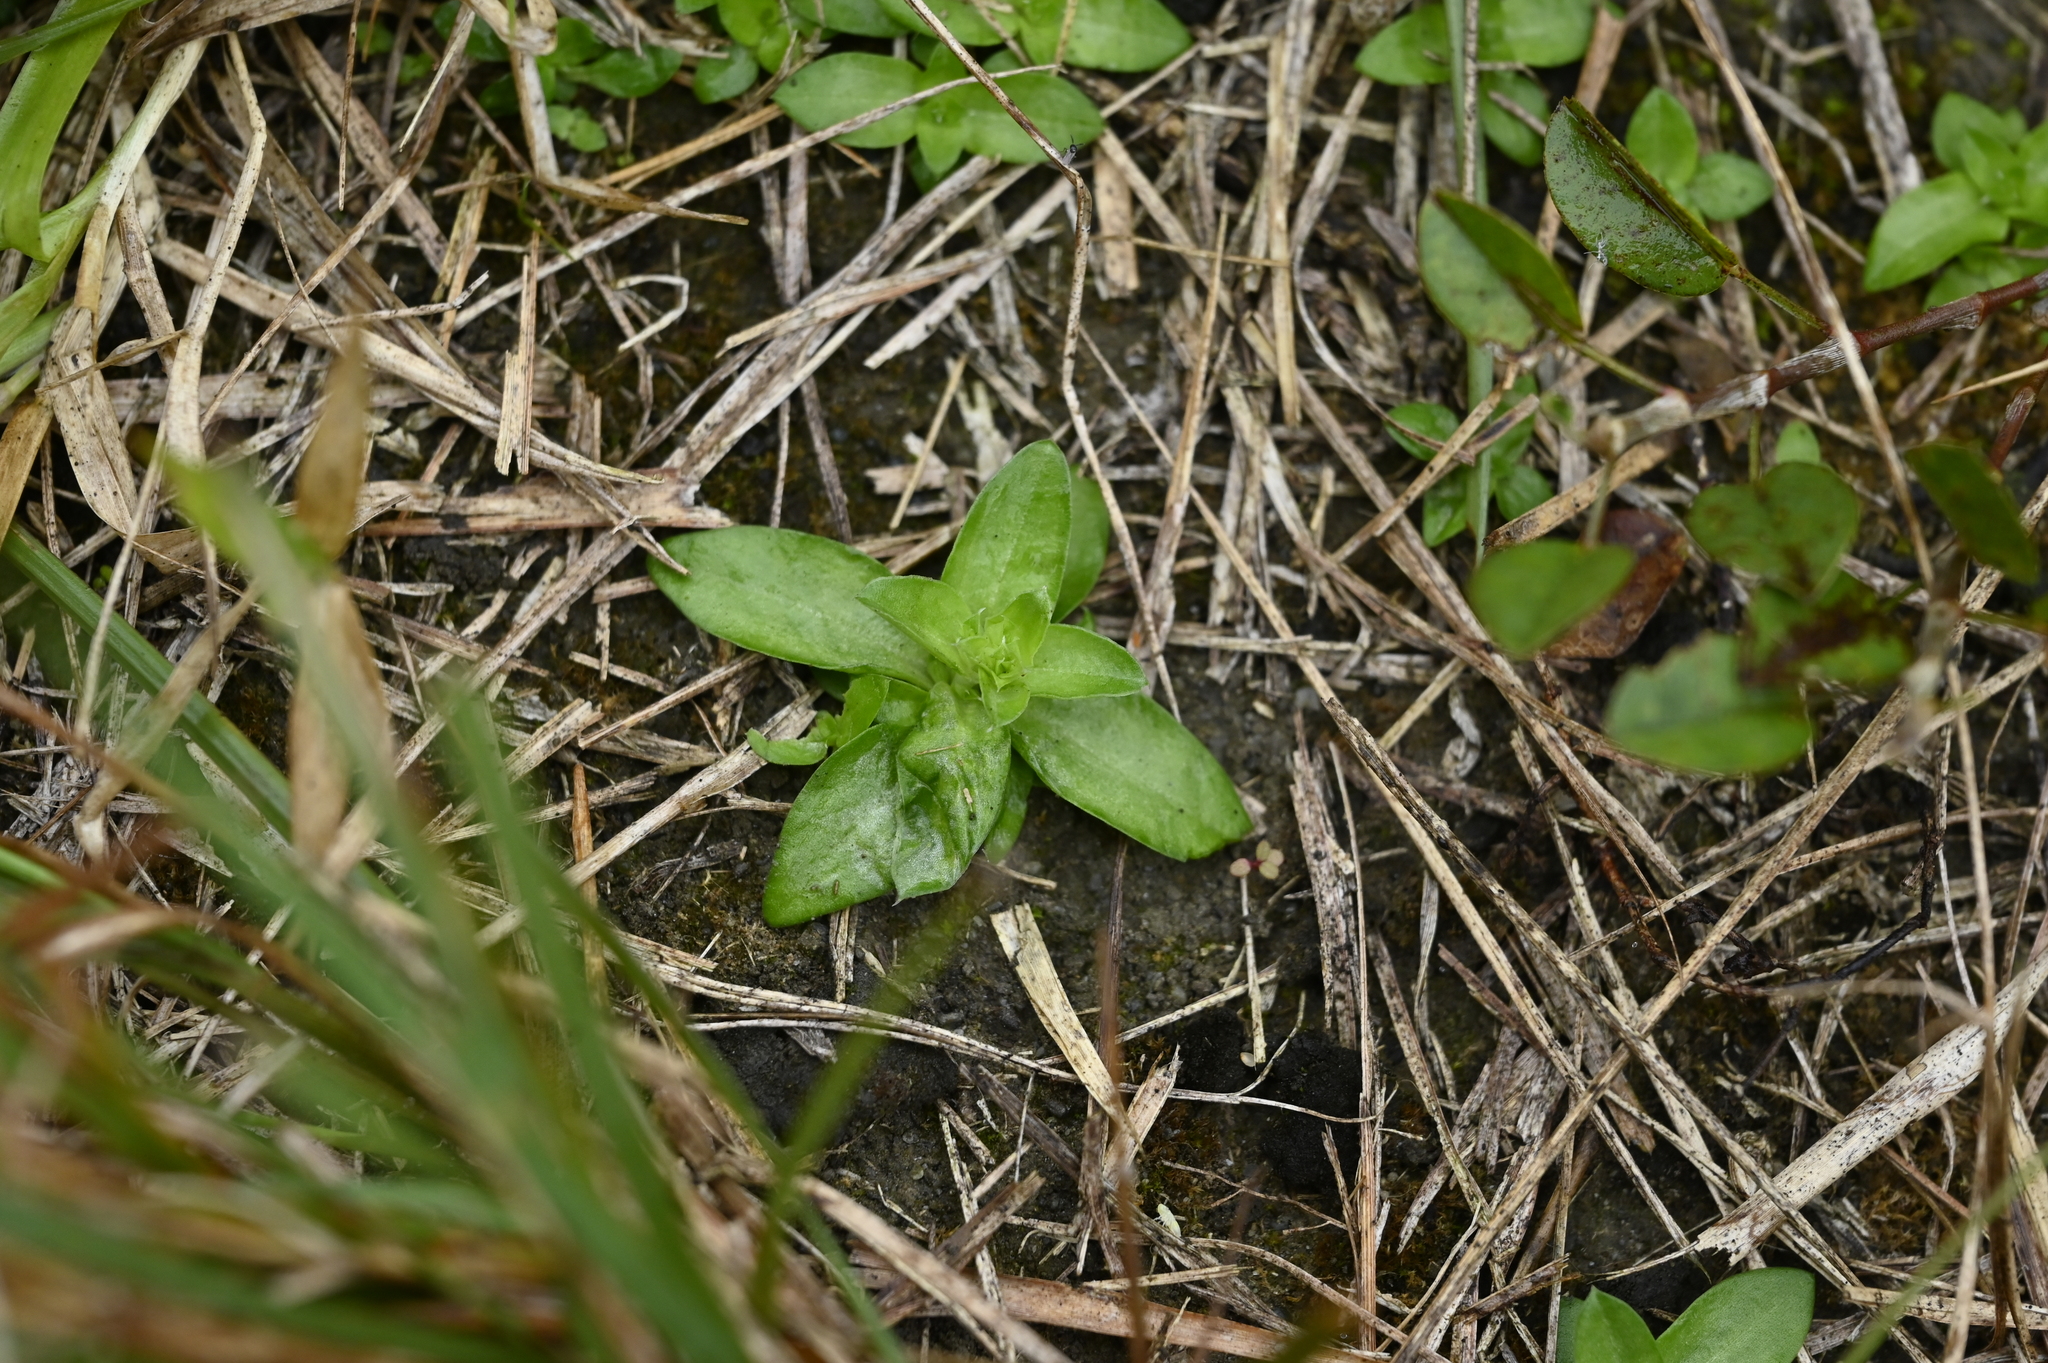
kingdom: Plantae
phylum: Tracheophyta
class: Magnoliopsida
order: Gentianales
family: Gentianaceae
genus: Gentiana
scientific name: Gentiana yokusai
